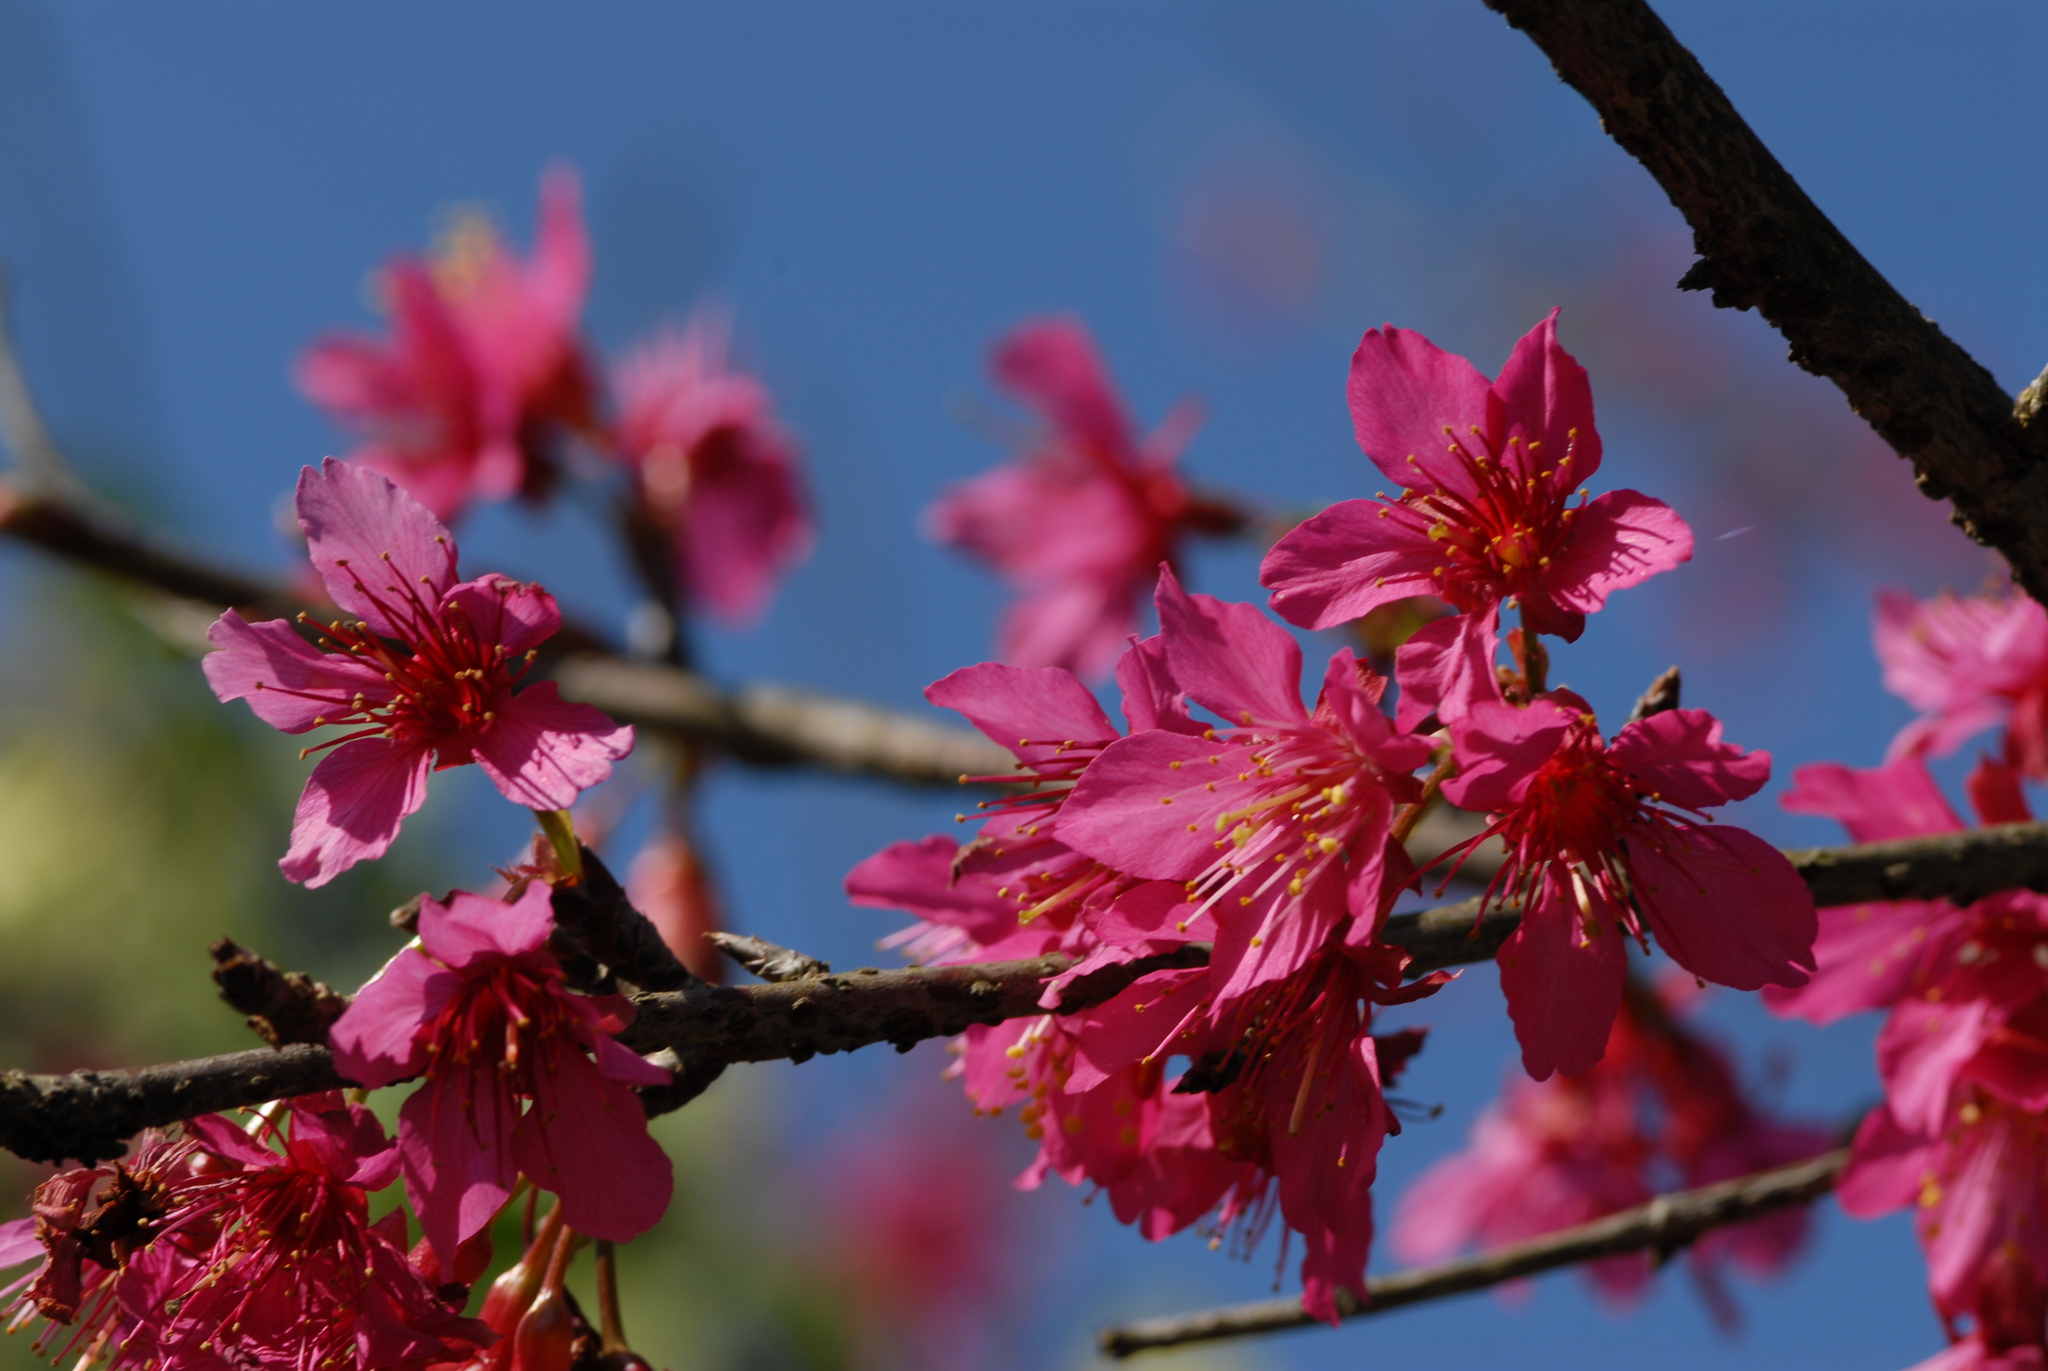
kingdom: Plantae
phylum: Tracheophyta
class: Magnoliopsida
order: Rosales
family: Rosaceae
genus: Prunus
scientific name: Prunus campanulata
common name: Taiwan flowering cherry
